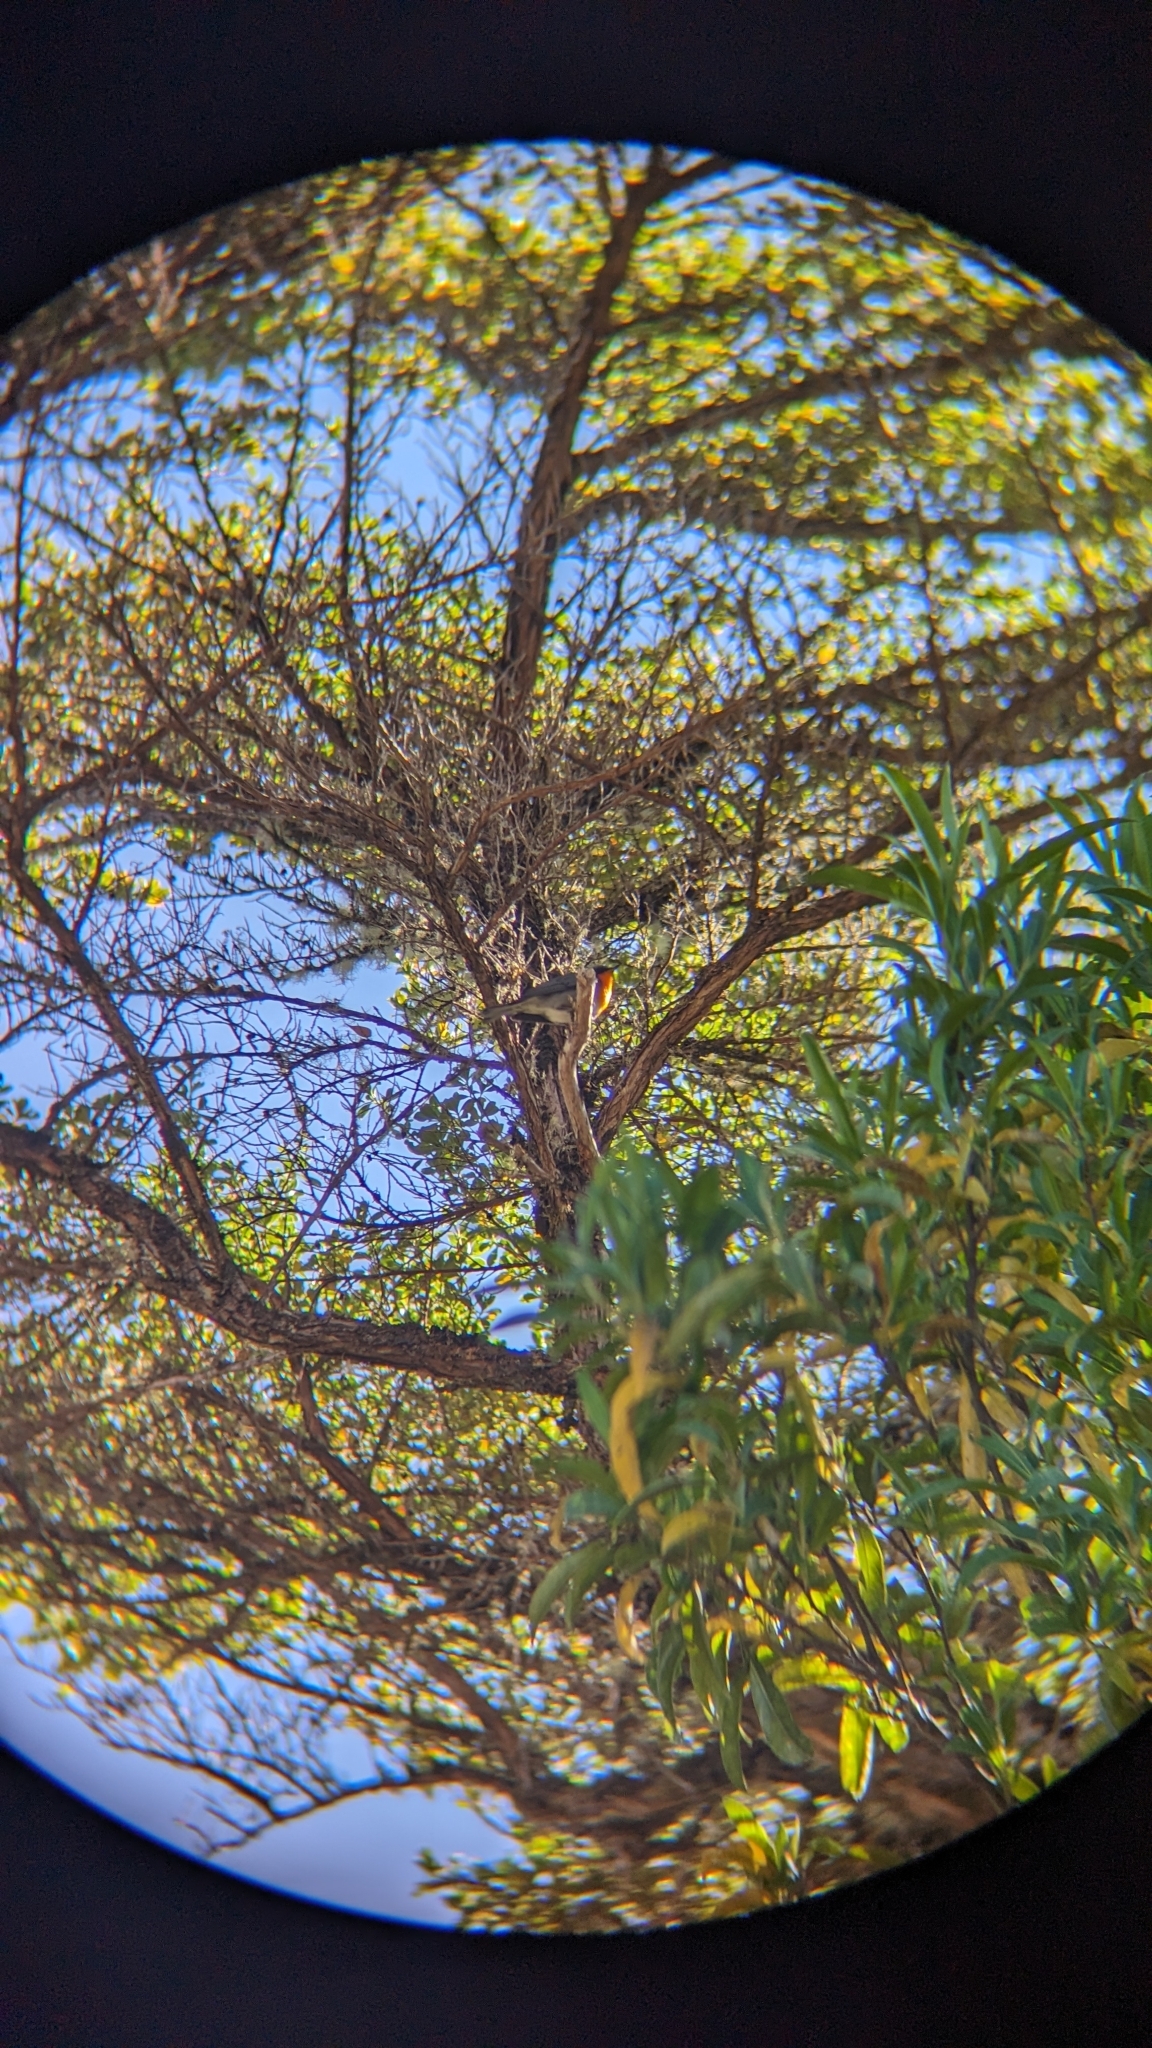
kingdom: Animalia
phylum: Chordata
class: Aves
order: Passeriformes
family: Parulidae
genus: Oreothlypis
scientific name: Oreothlypis gutturalis
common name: Flame-throated warbler
